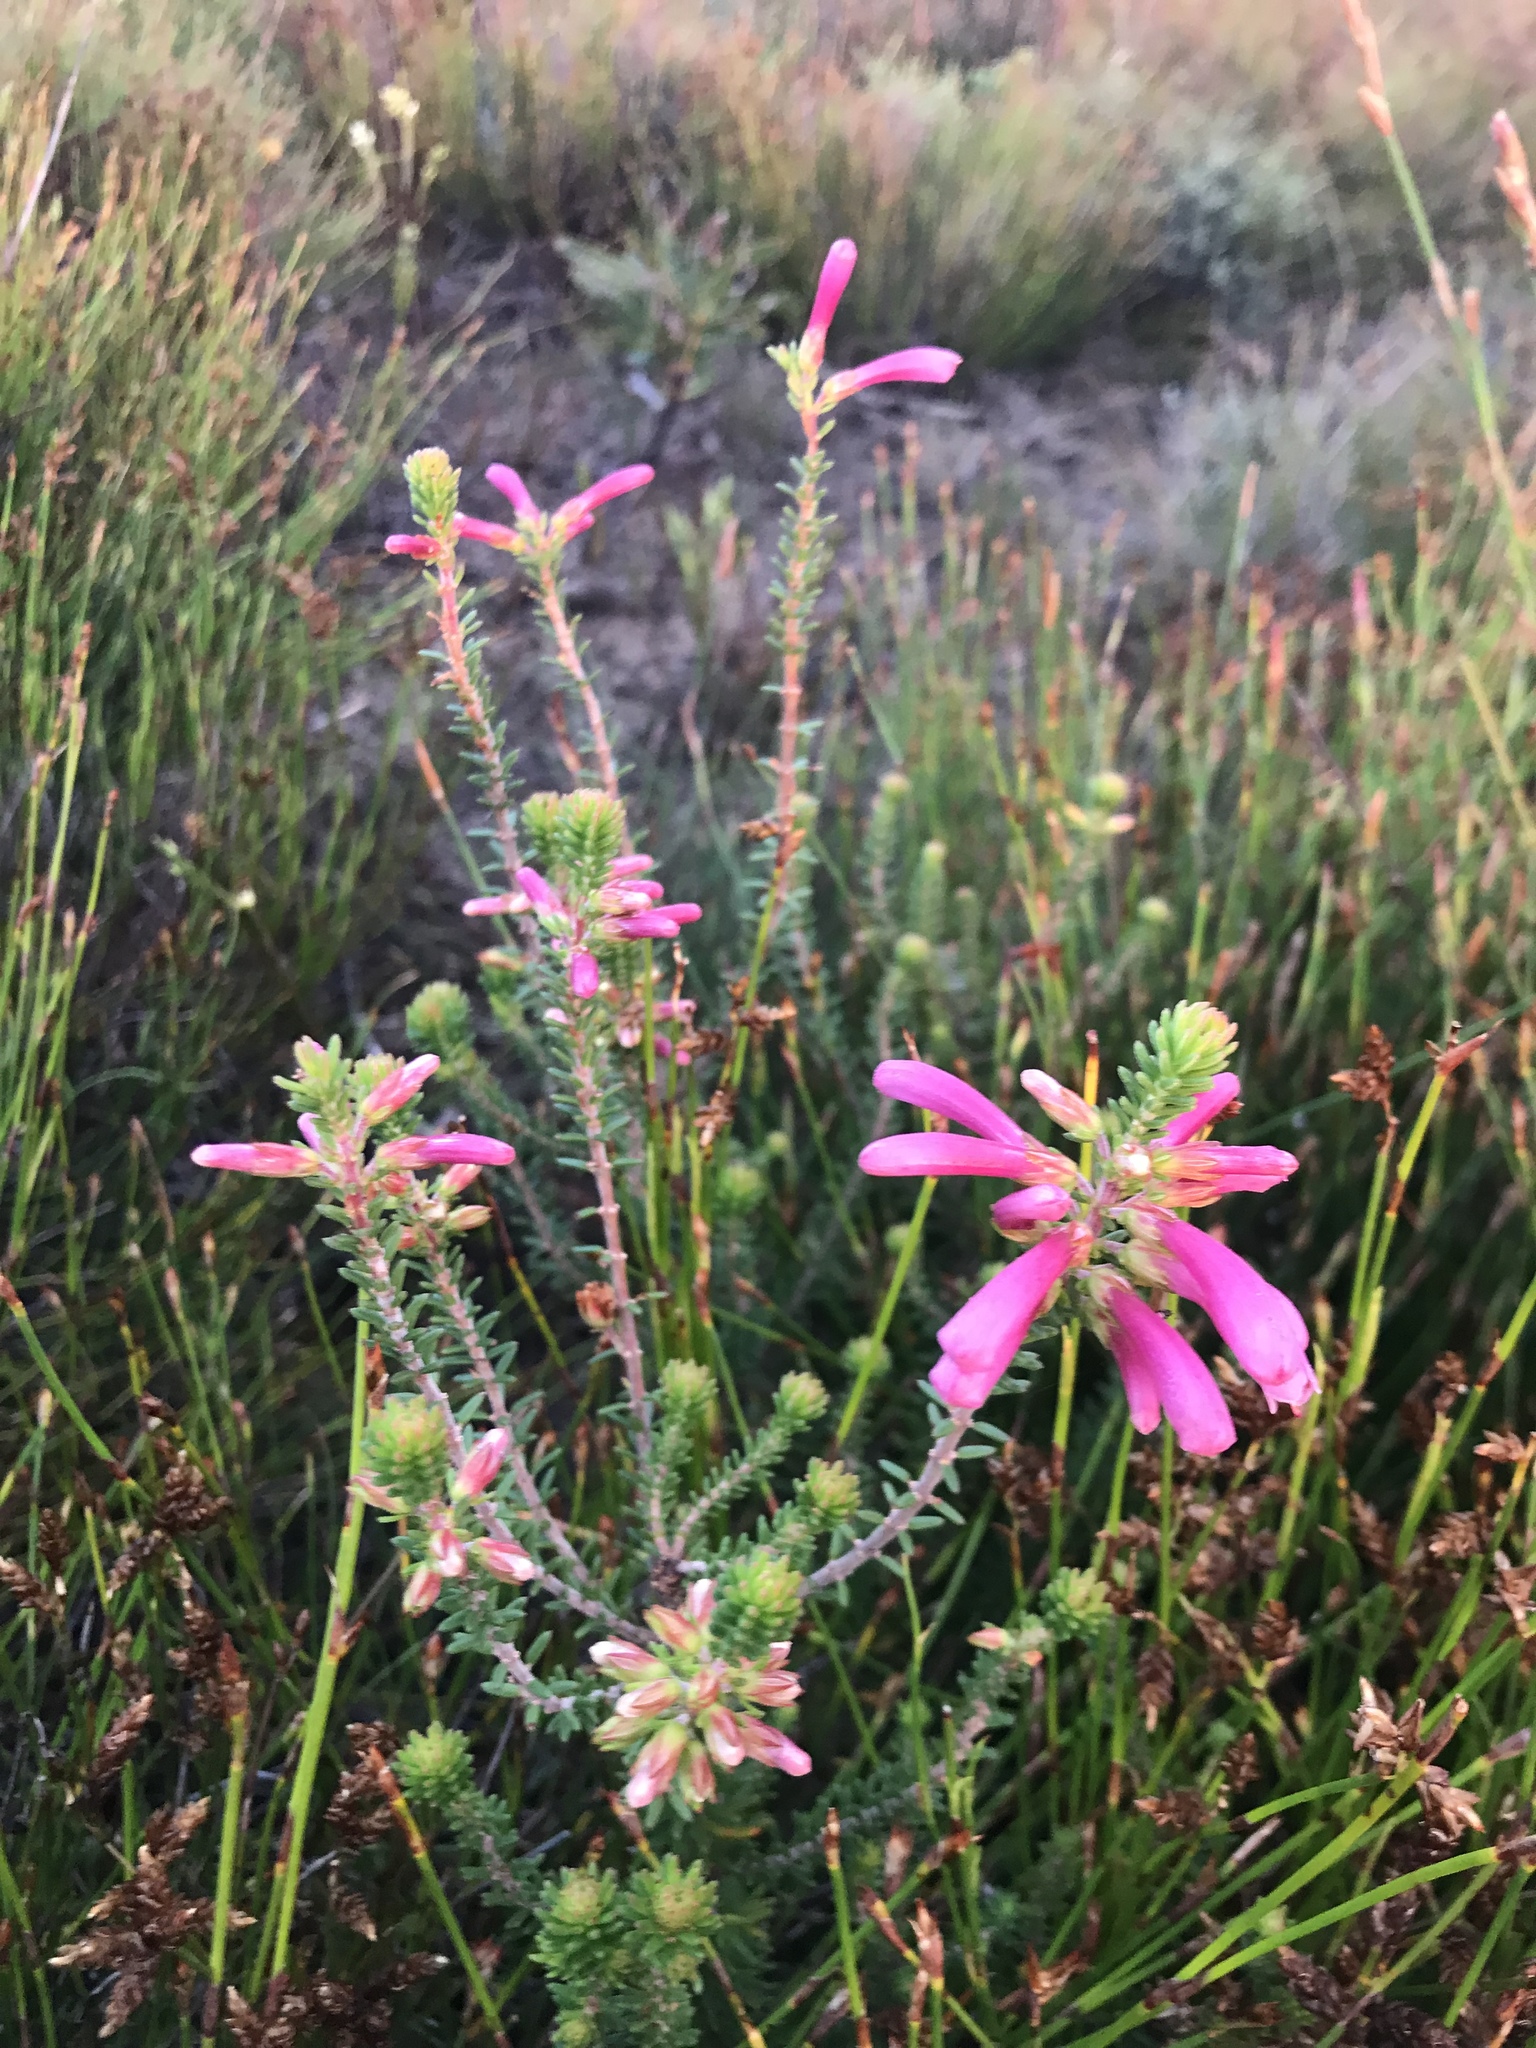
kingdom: Plantae
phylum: Tracheophyta
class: Magnoliopsida
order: Ericales
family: Ericaceae
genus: Erica
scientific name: Erica abietina
